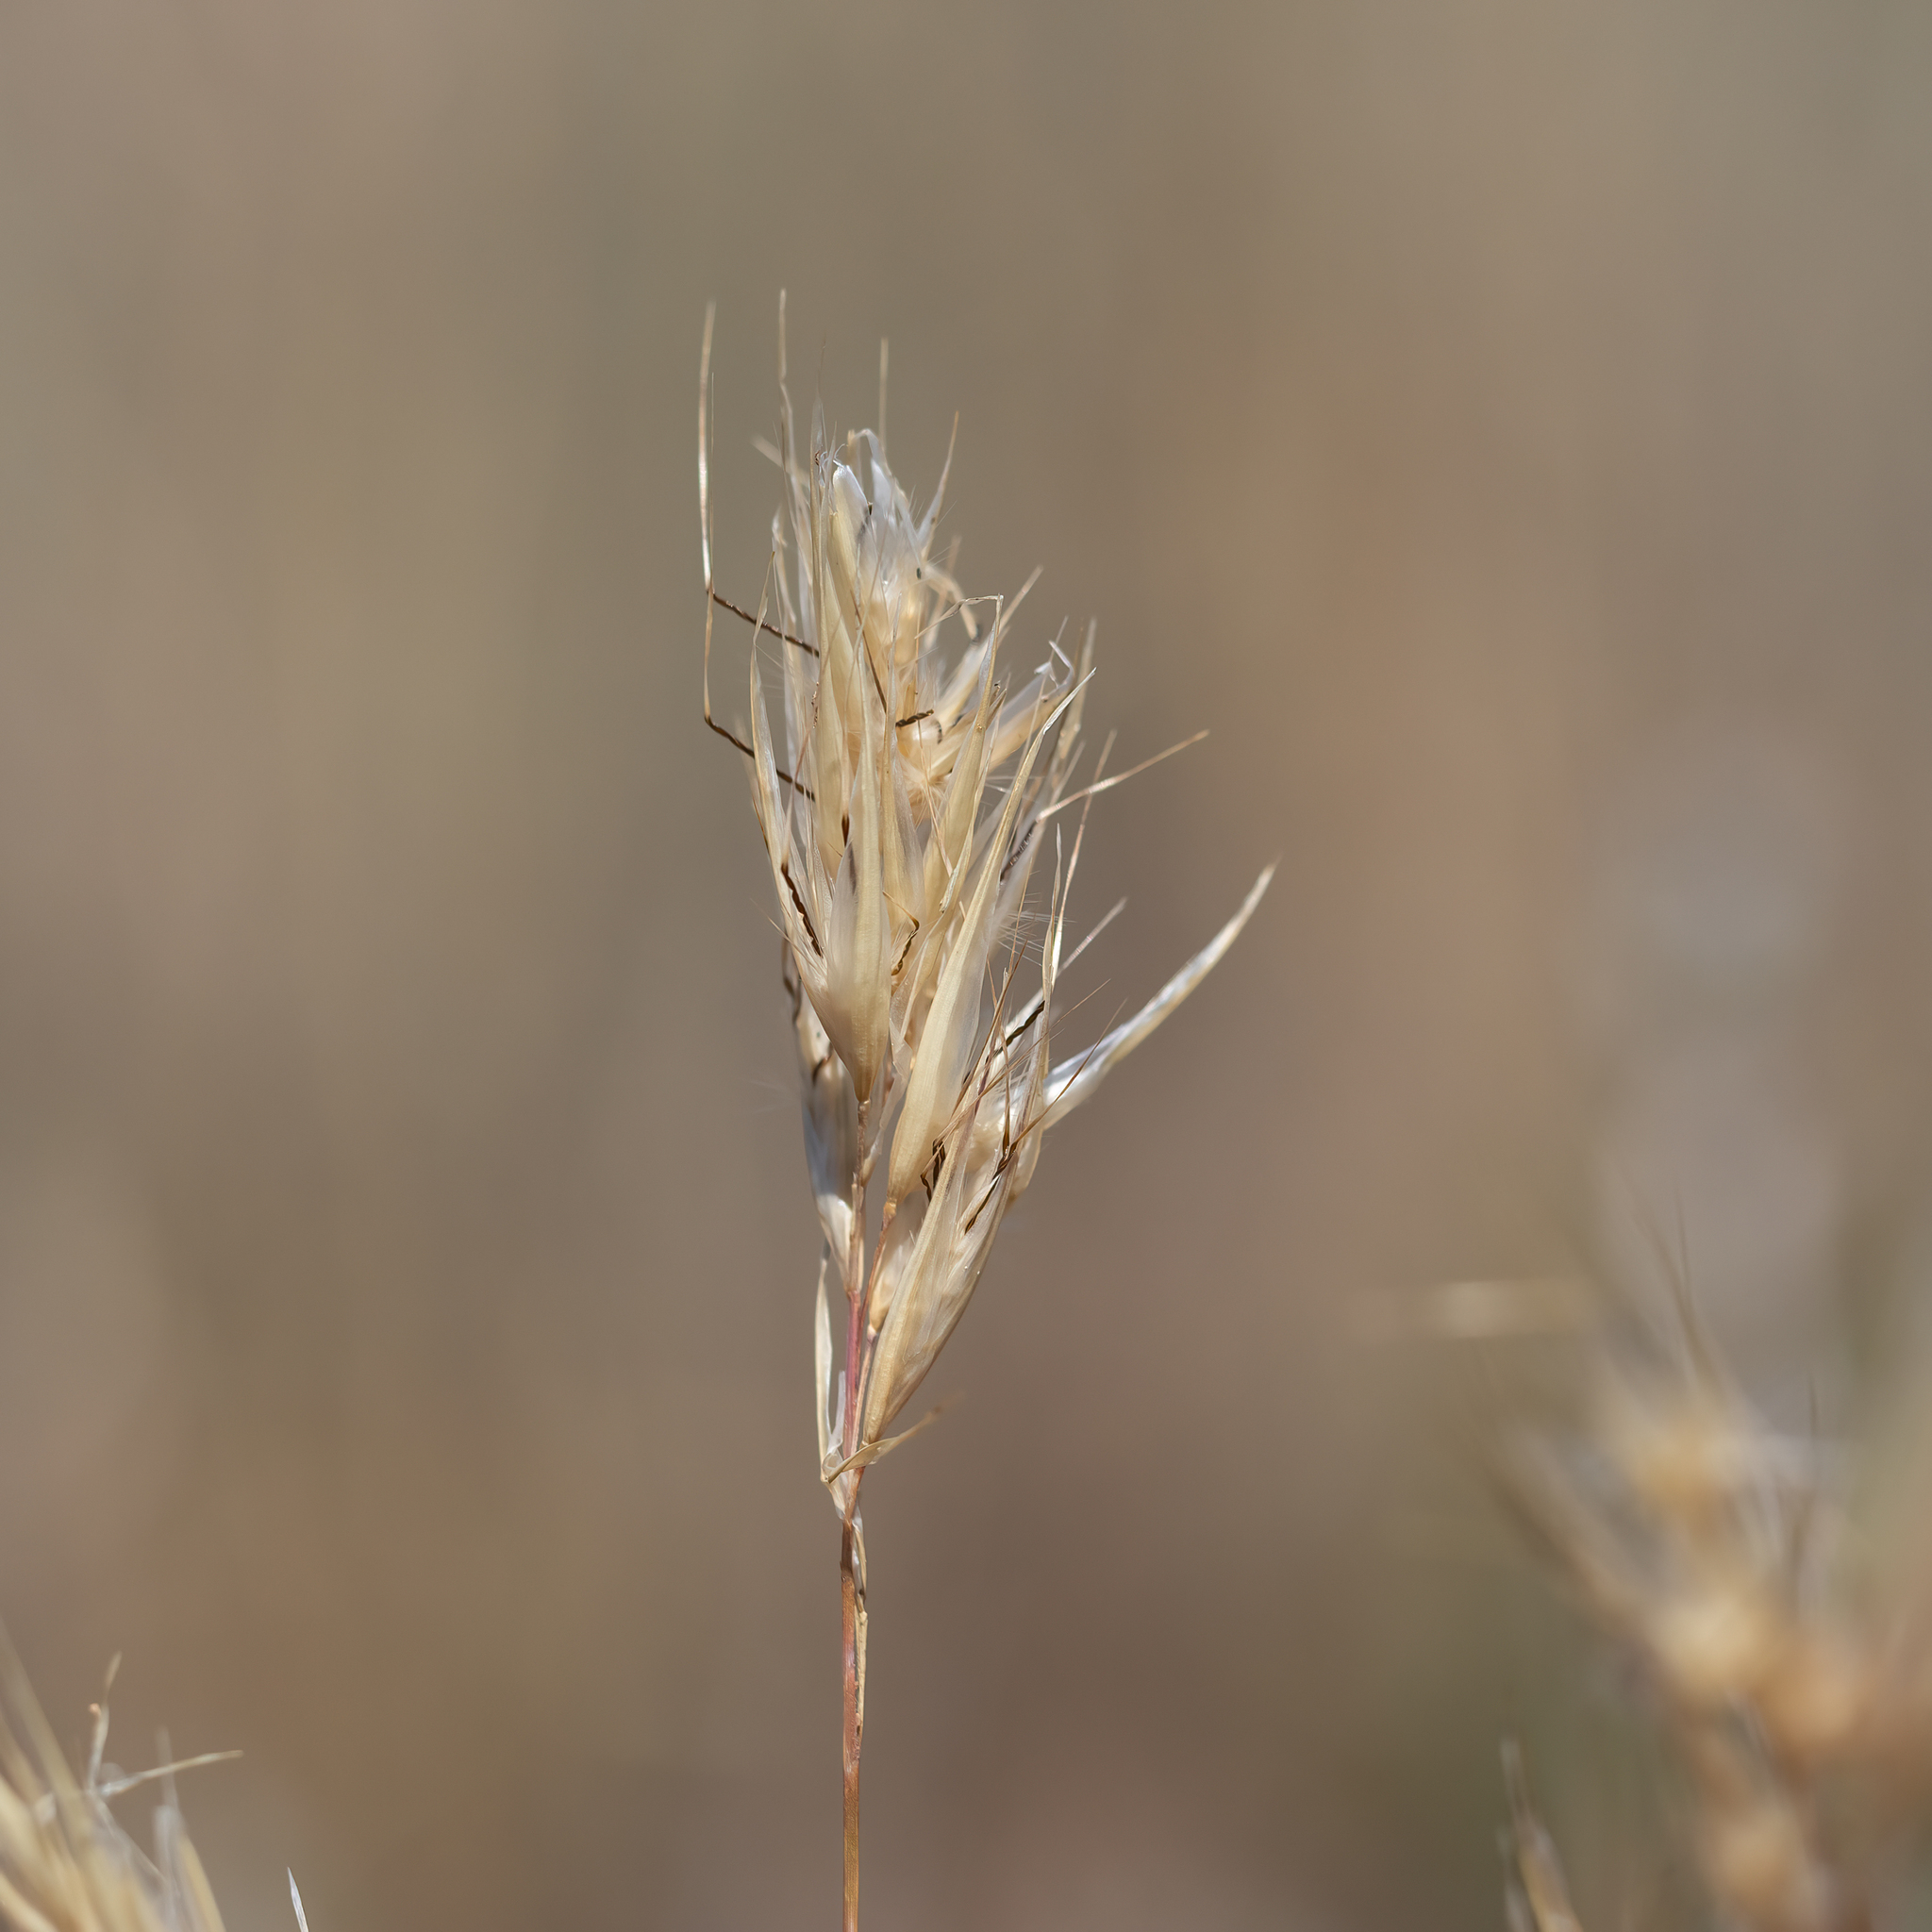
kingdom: Plantae
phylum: Tracheophyta
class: Liliopsida
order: Poales
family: Poaceae
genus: Rytidosperma
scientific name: Rytidosperma robertsoniae
